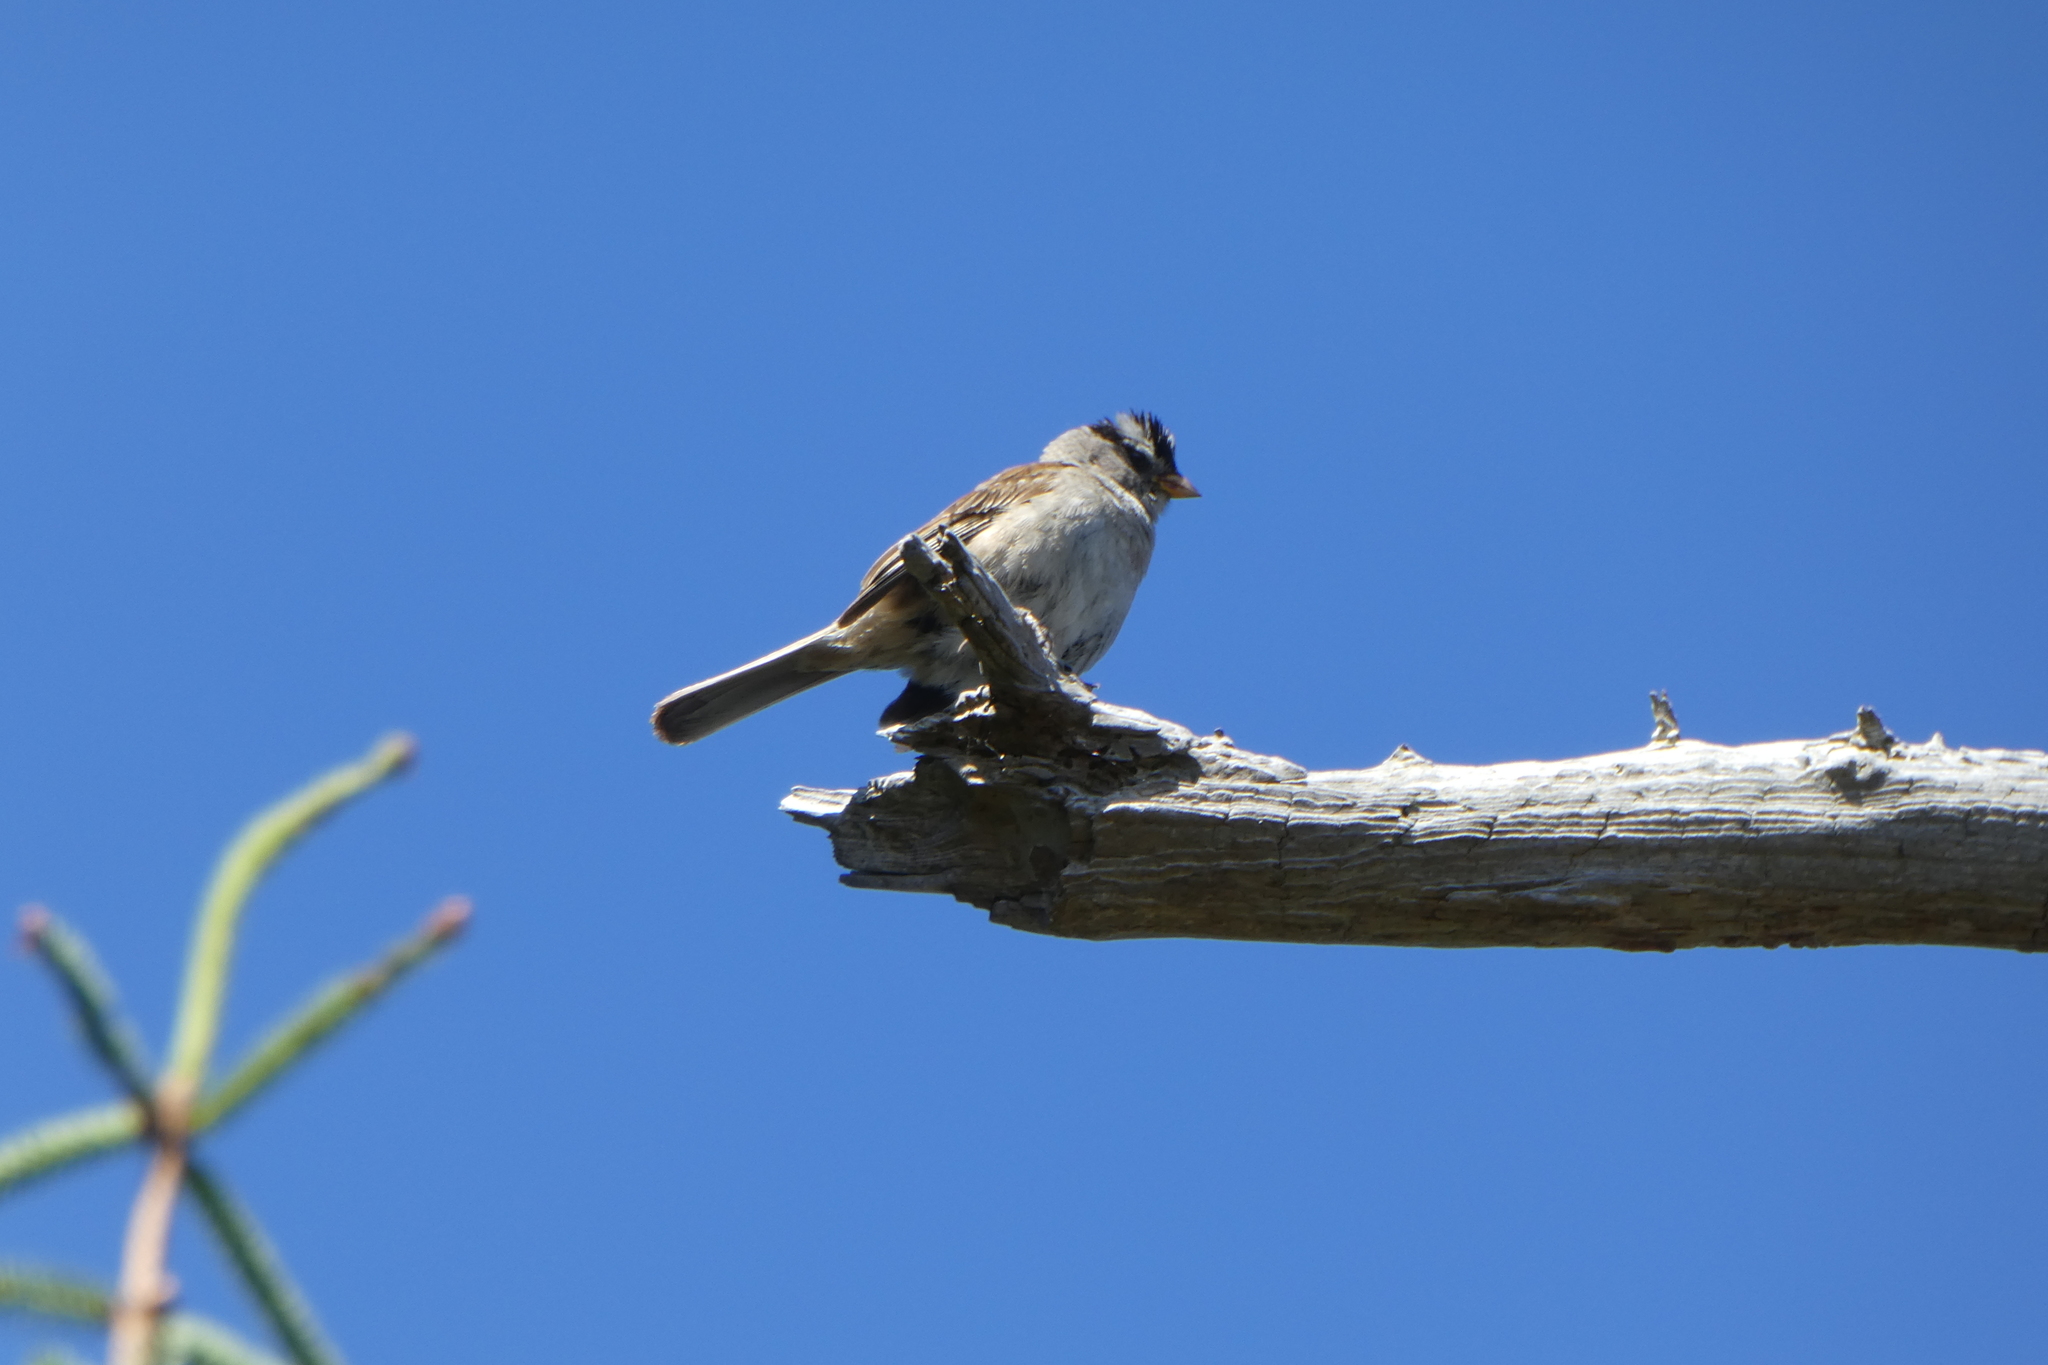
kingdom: Animalia
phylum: Chordata
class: Aves
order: Passeriformes
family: Passerellidae
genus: Zonotrichia
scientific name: Zonotrichia leucophrys
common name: White-crowned sparrow
